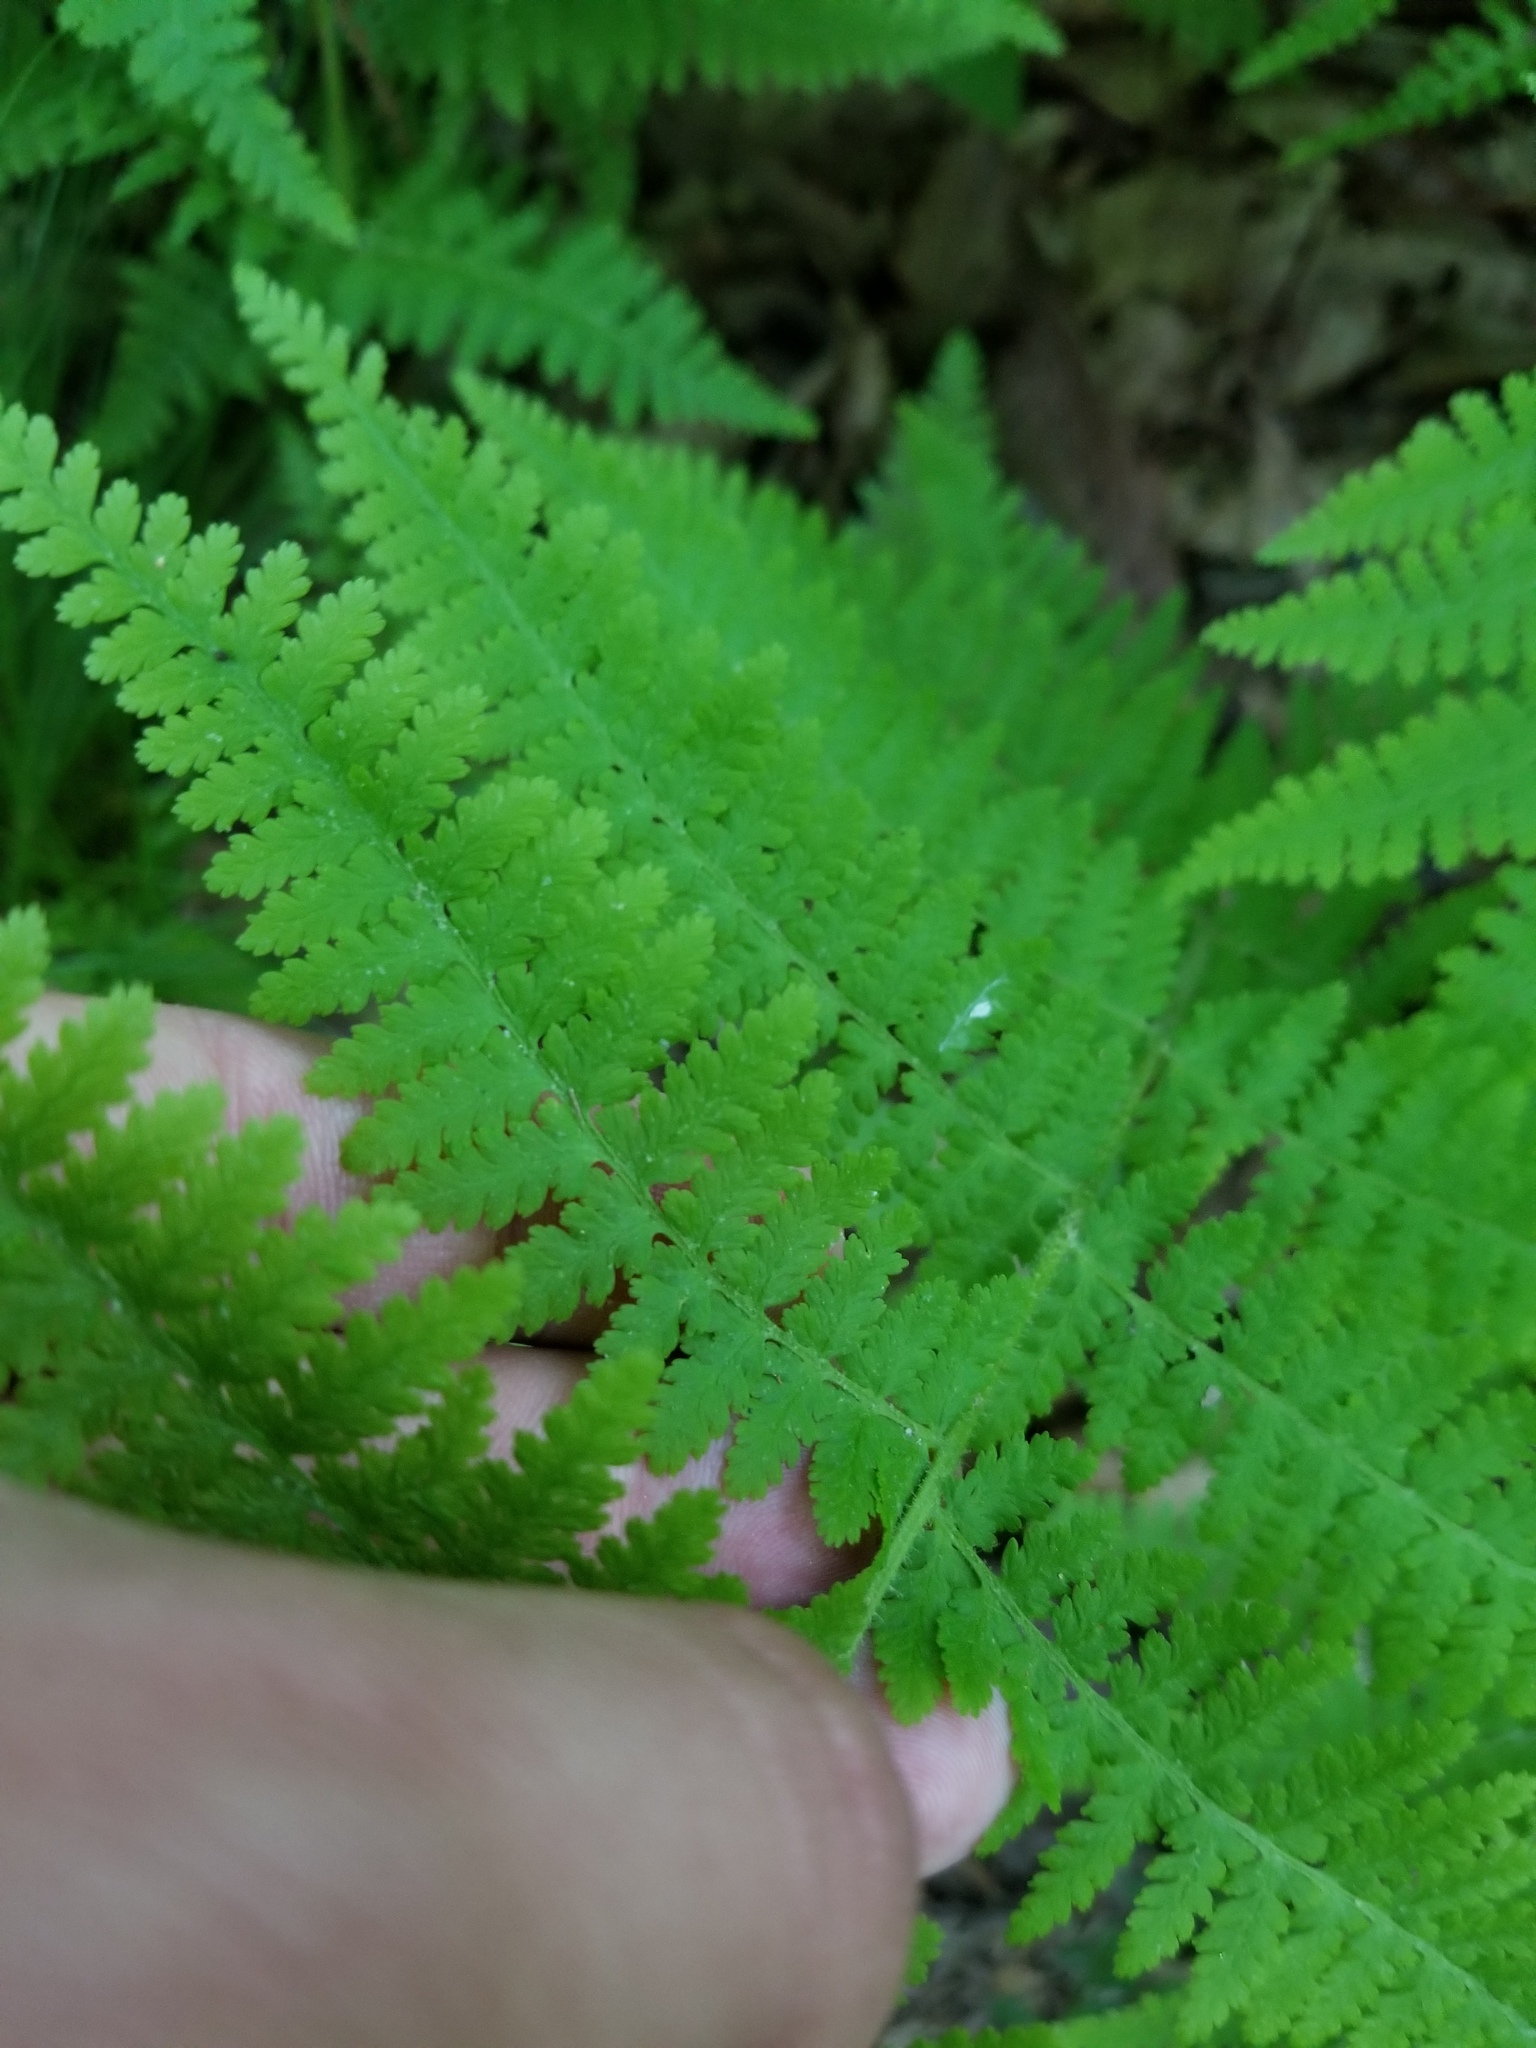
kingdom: Plantae
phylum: Tracheophyta
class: Polypodiopsida
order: Polypodiales
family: Dennstaedtiaceae
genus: Sitobolium
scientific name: Sitobolium punctilobum
